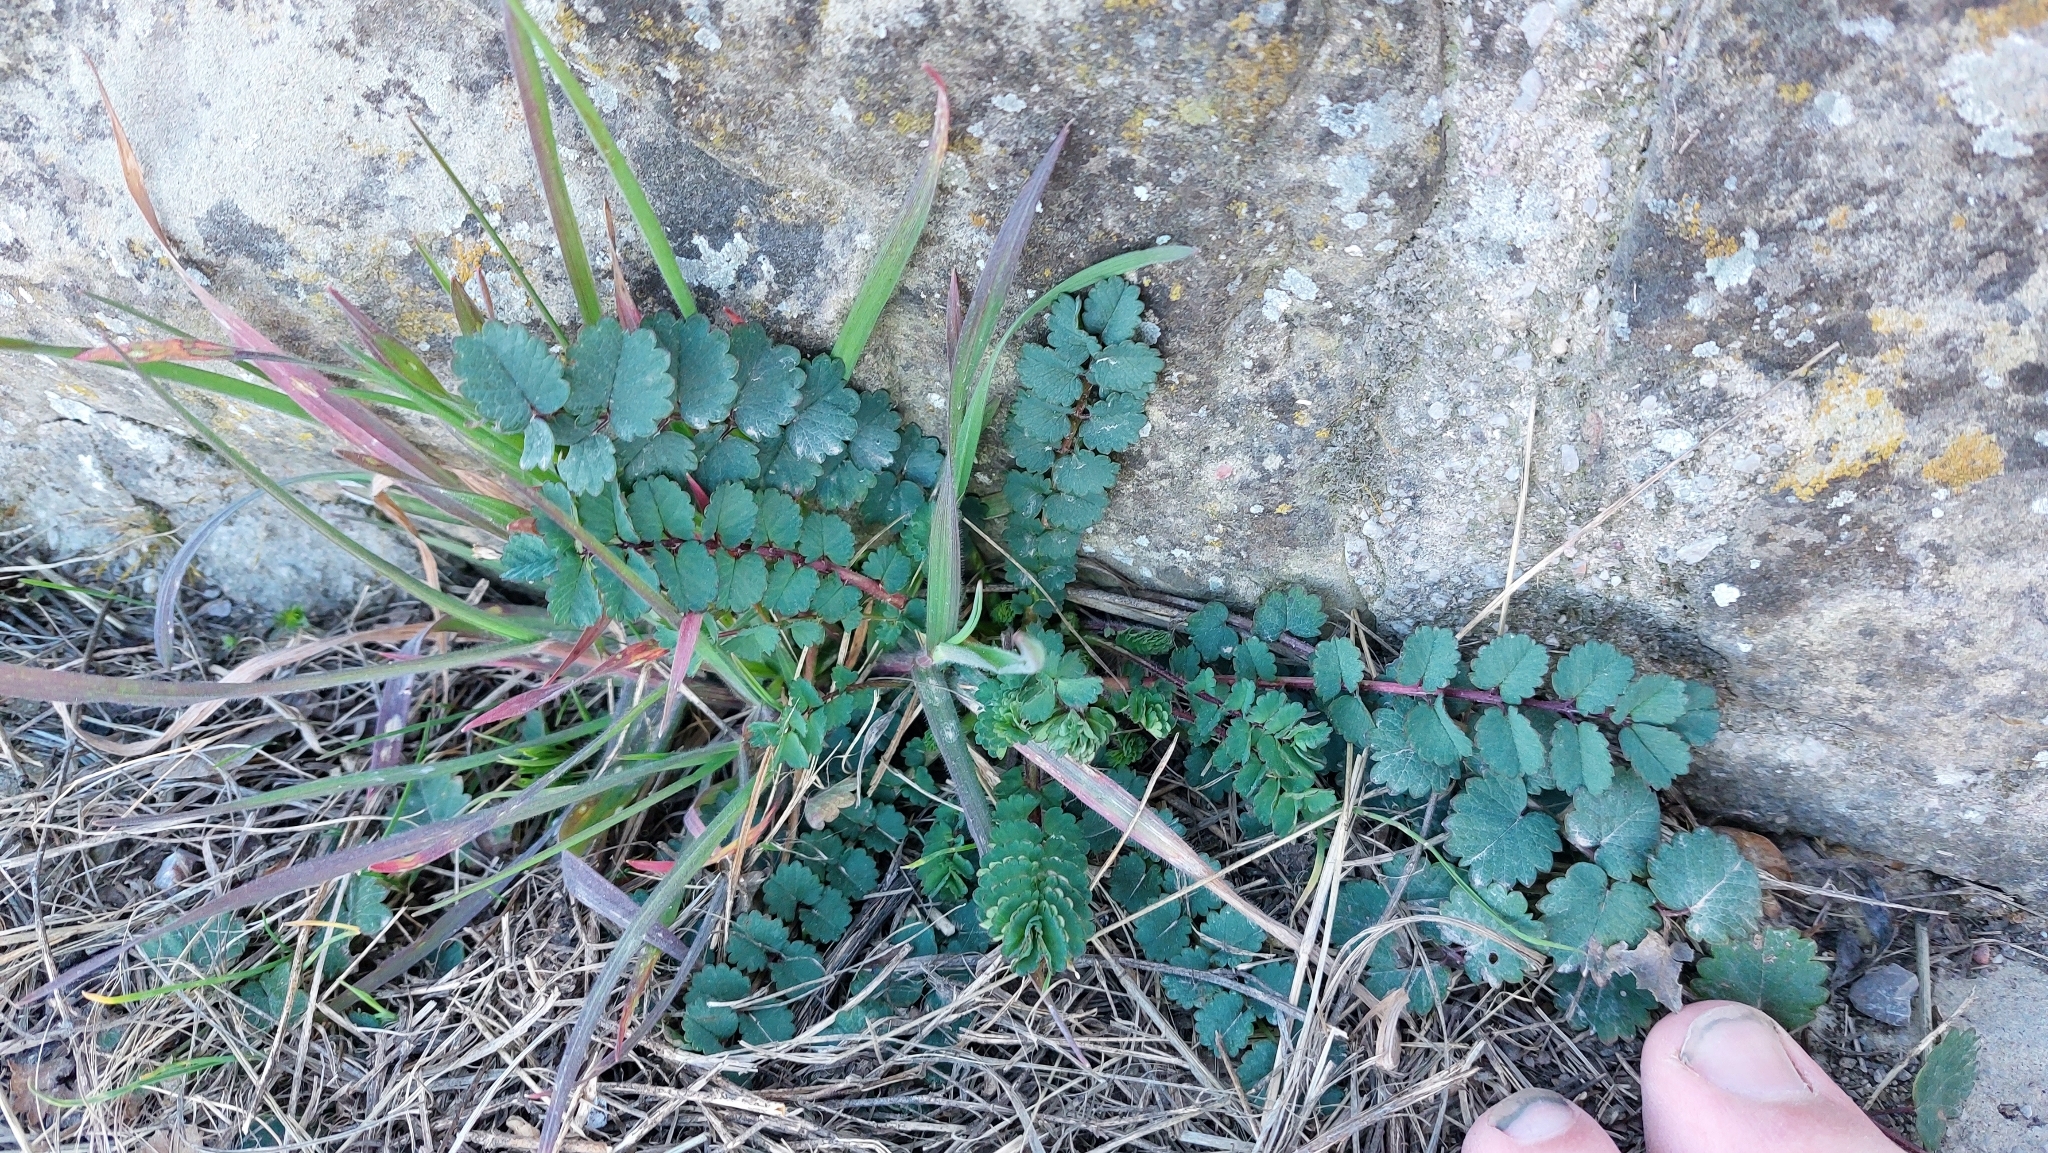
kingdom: Plantae
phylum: Tracheophyta
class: Magnoliopsida
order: Rosales
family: Rosaceae
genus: Poterium
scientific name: Poterium sanguisorba
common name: Salad burnet
